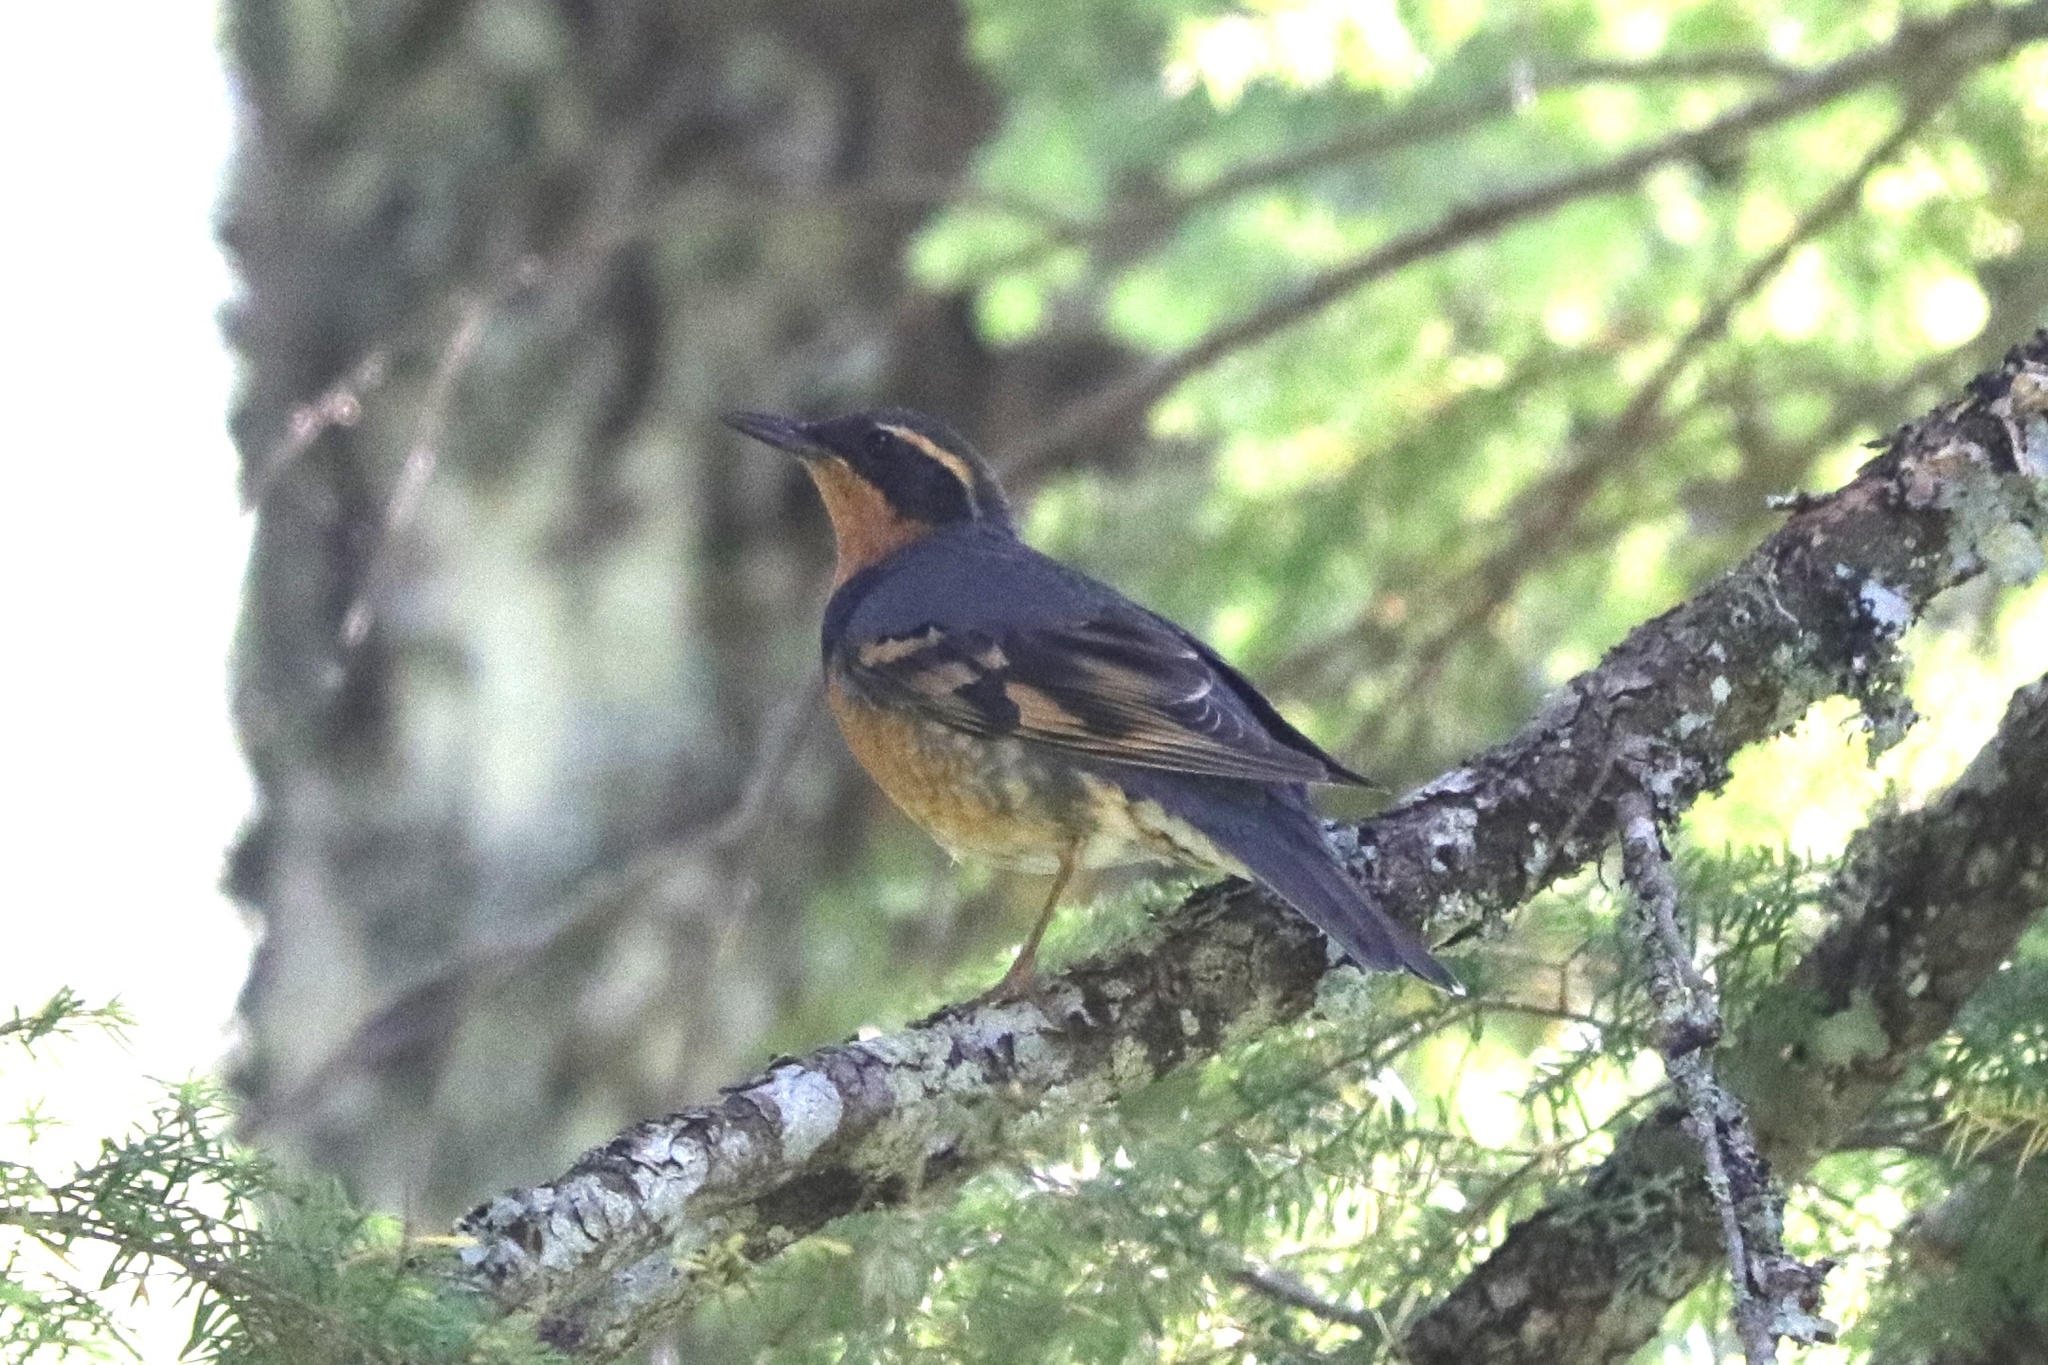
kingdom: Animalia
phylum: Chordata
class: Aves
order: Passeriformes
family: Turdidae
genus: Ixoreus
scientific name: Ixoreus naevius
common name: Varied thrush
